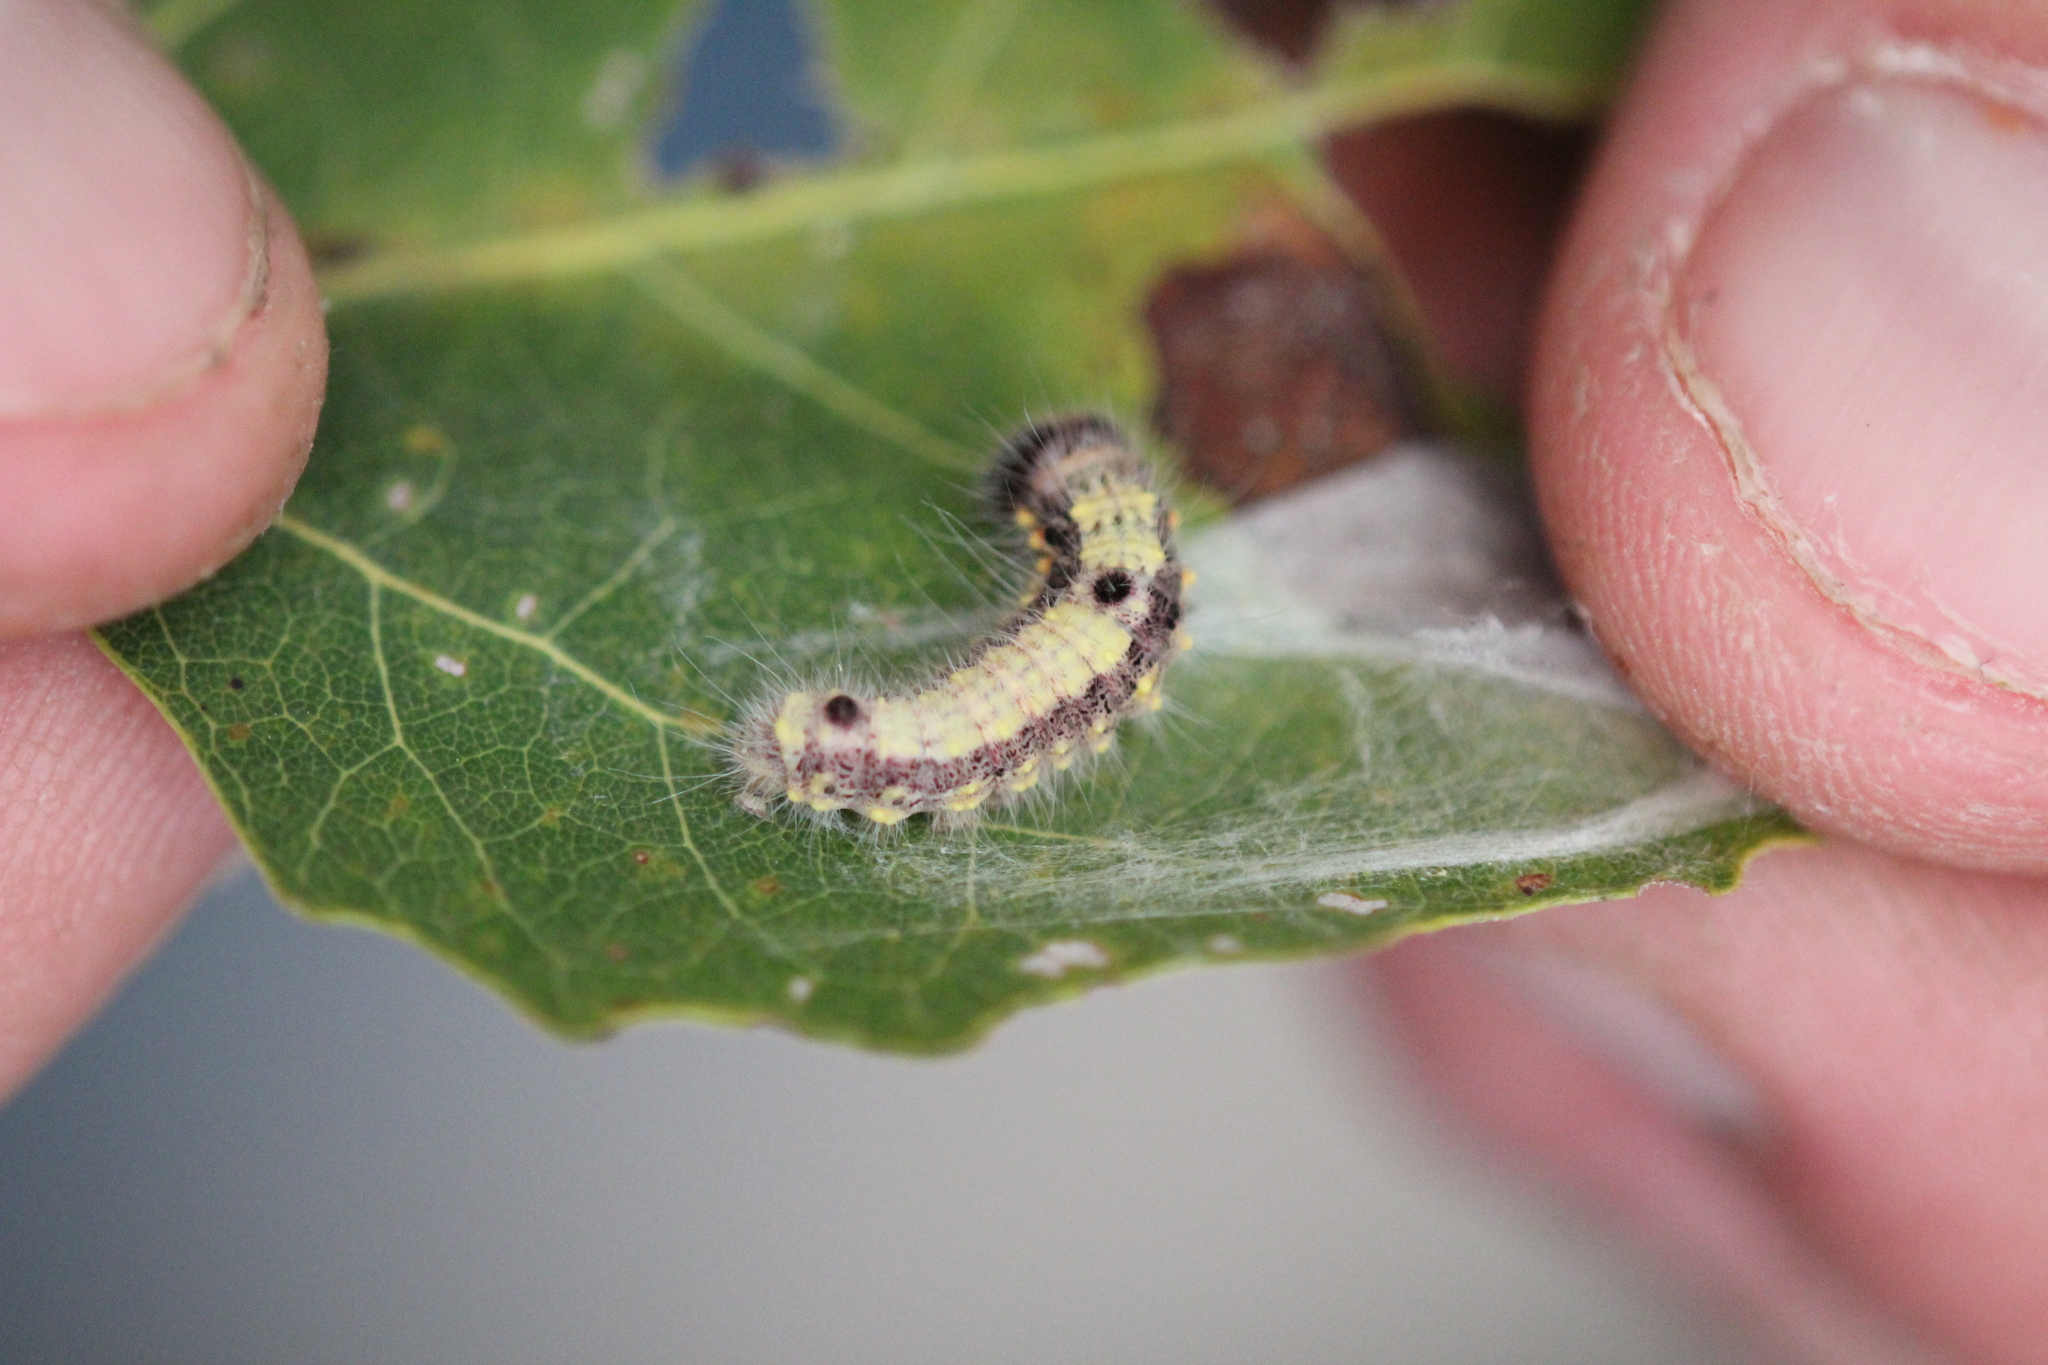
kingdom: Animalia
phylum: Arthropoda
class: Insecta
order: Lepidoptera
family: Notodontidae
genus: Clostera
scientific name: Clostera inclusa
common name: Angle-lined prominent
